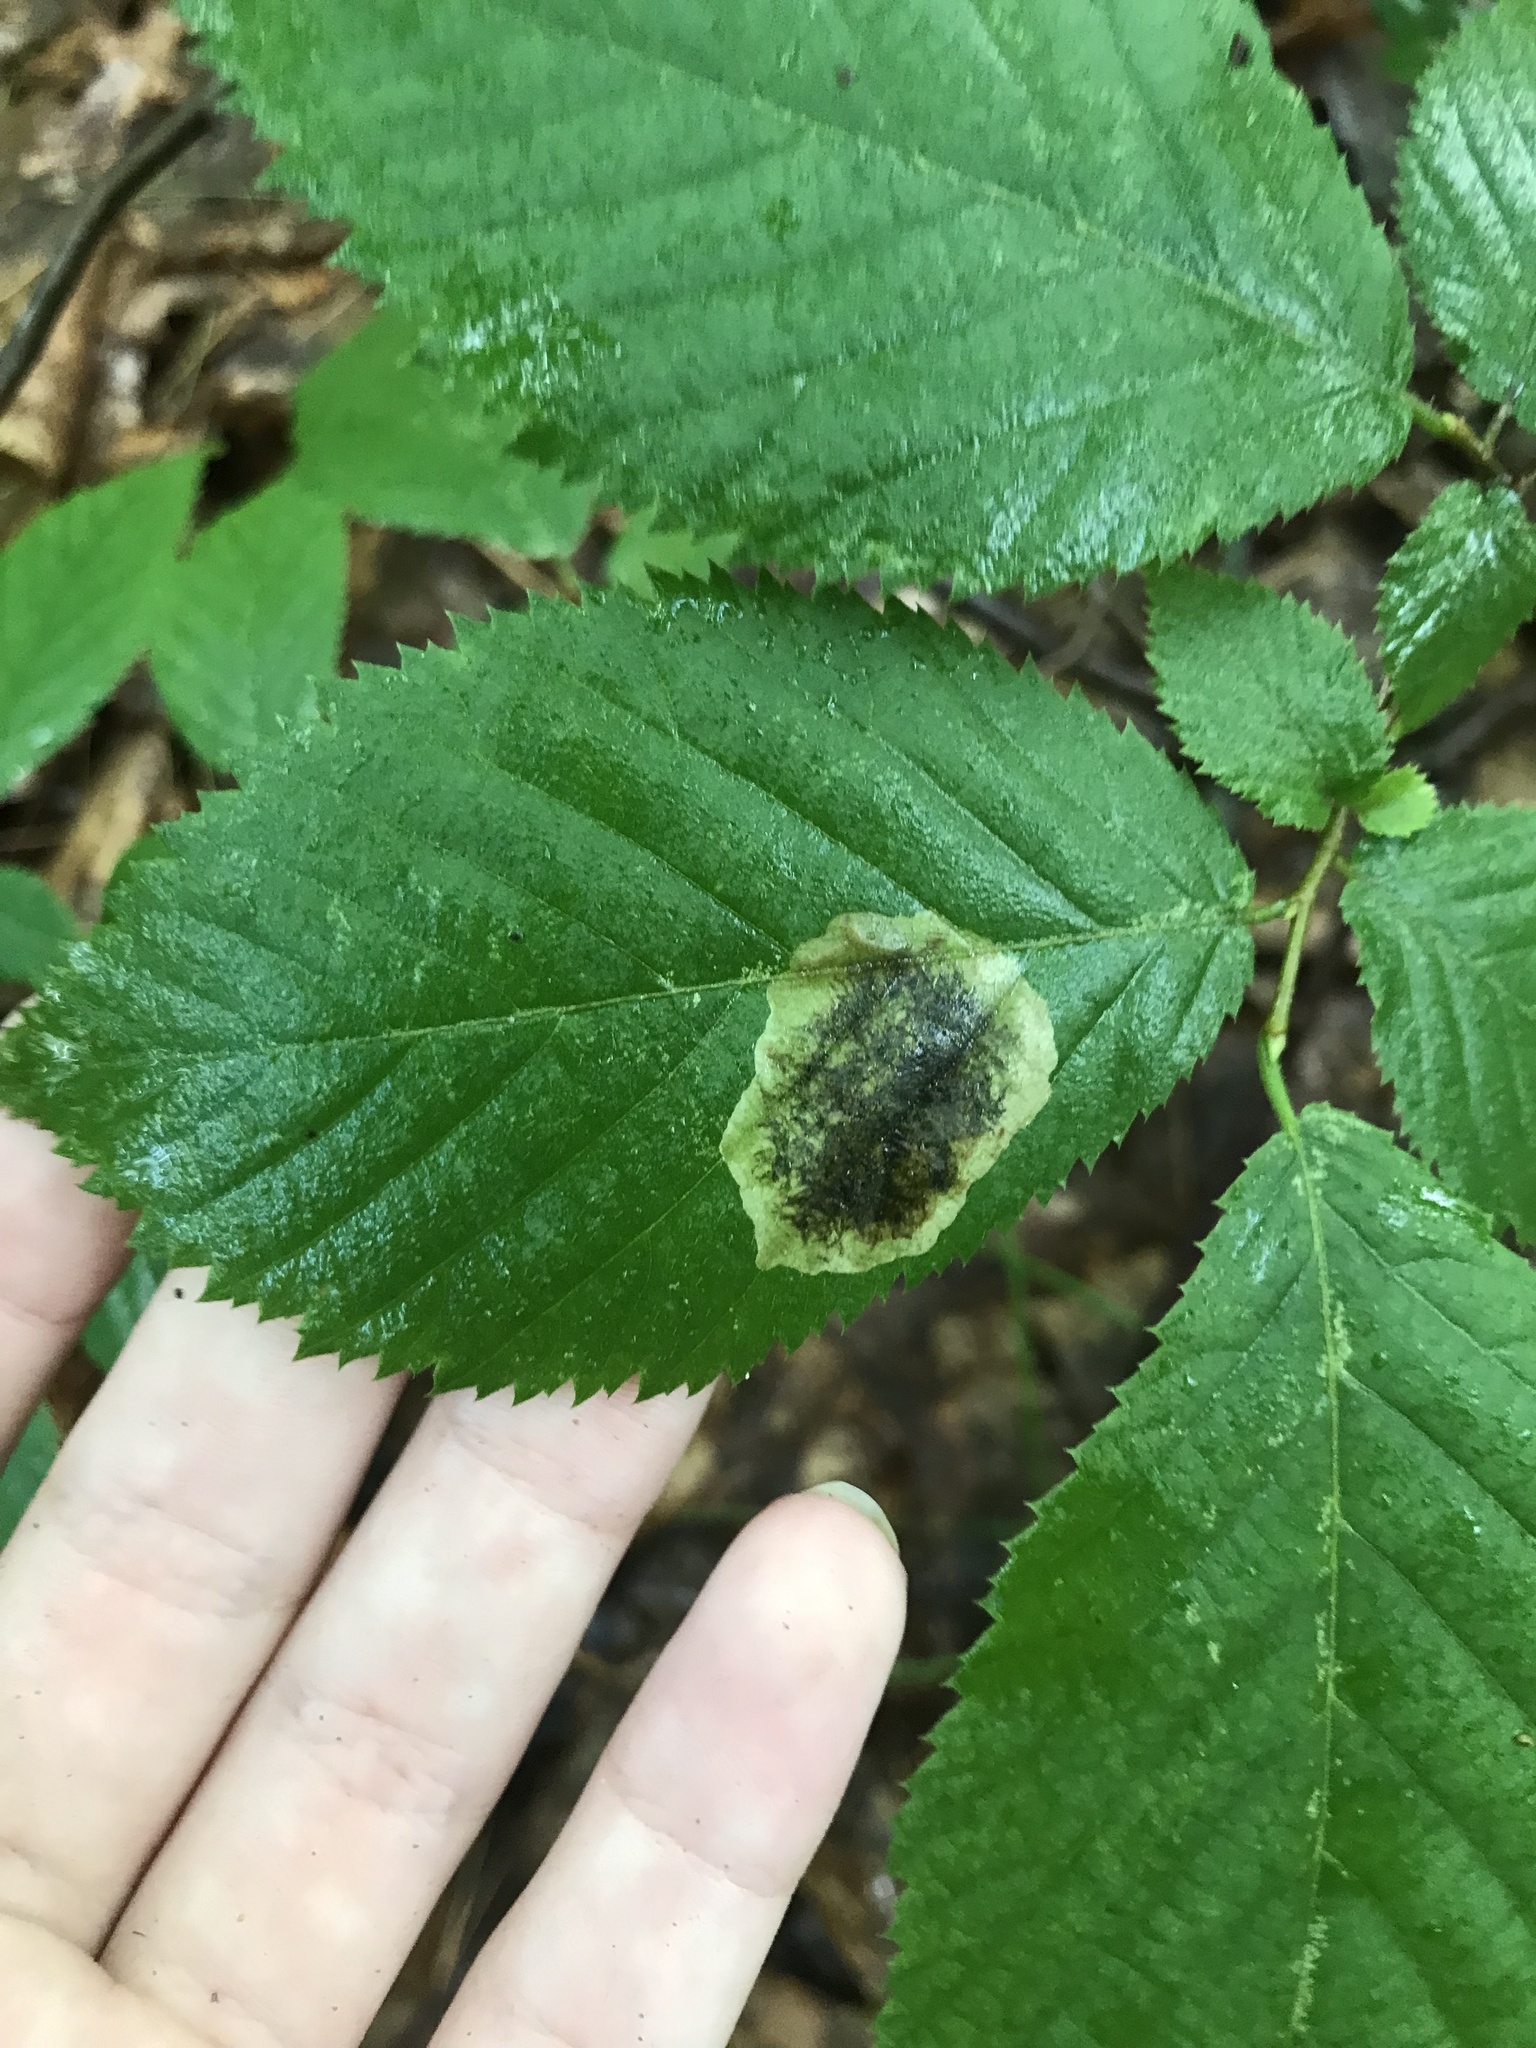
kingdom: Animalia
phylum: Arthropoda
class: Insecta
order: Lepidoptera
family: Gracillariidae
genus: Cameraria
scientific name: Cameraria
